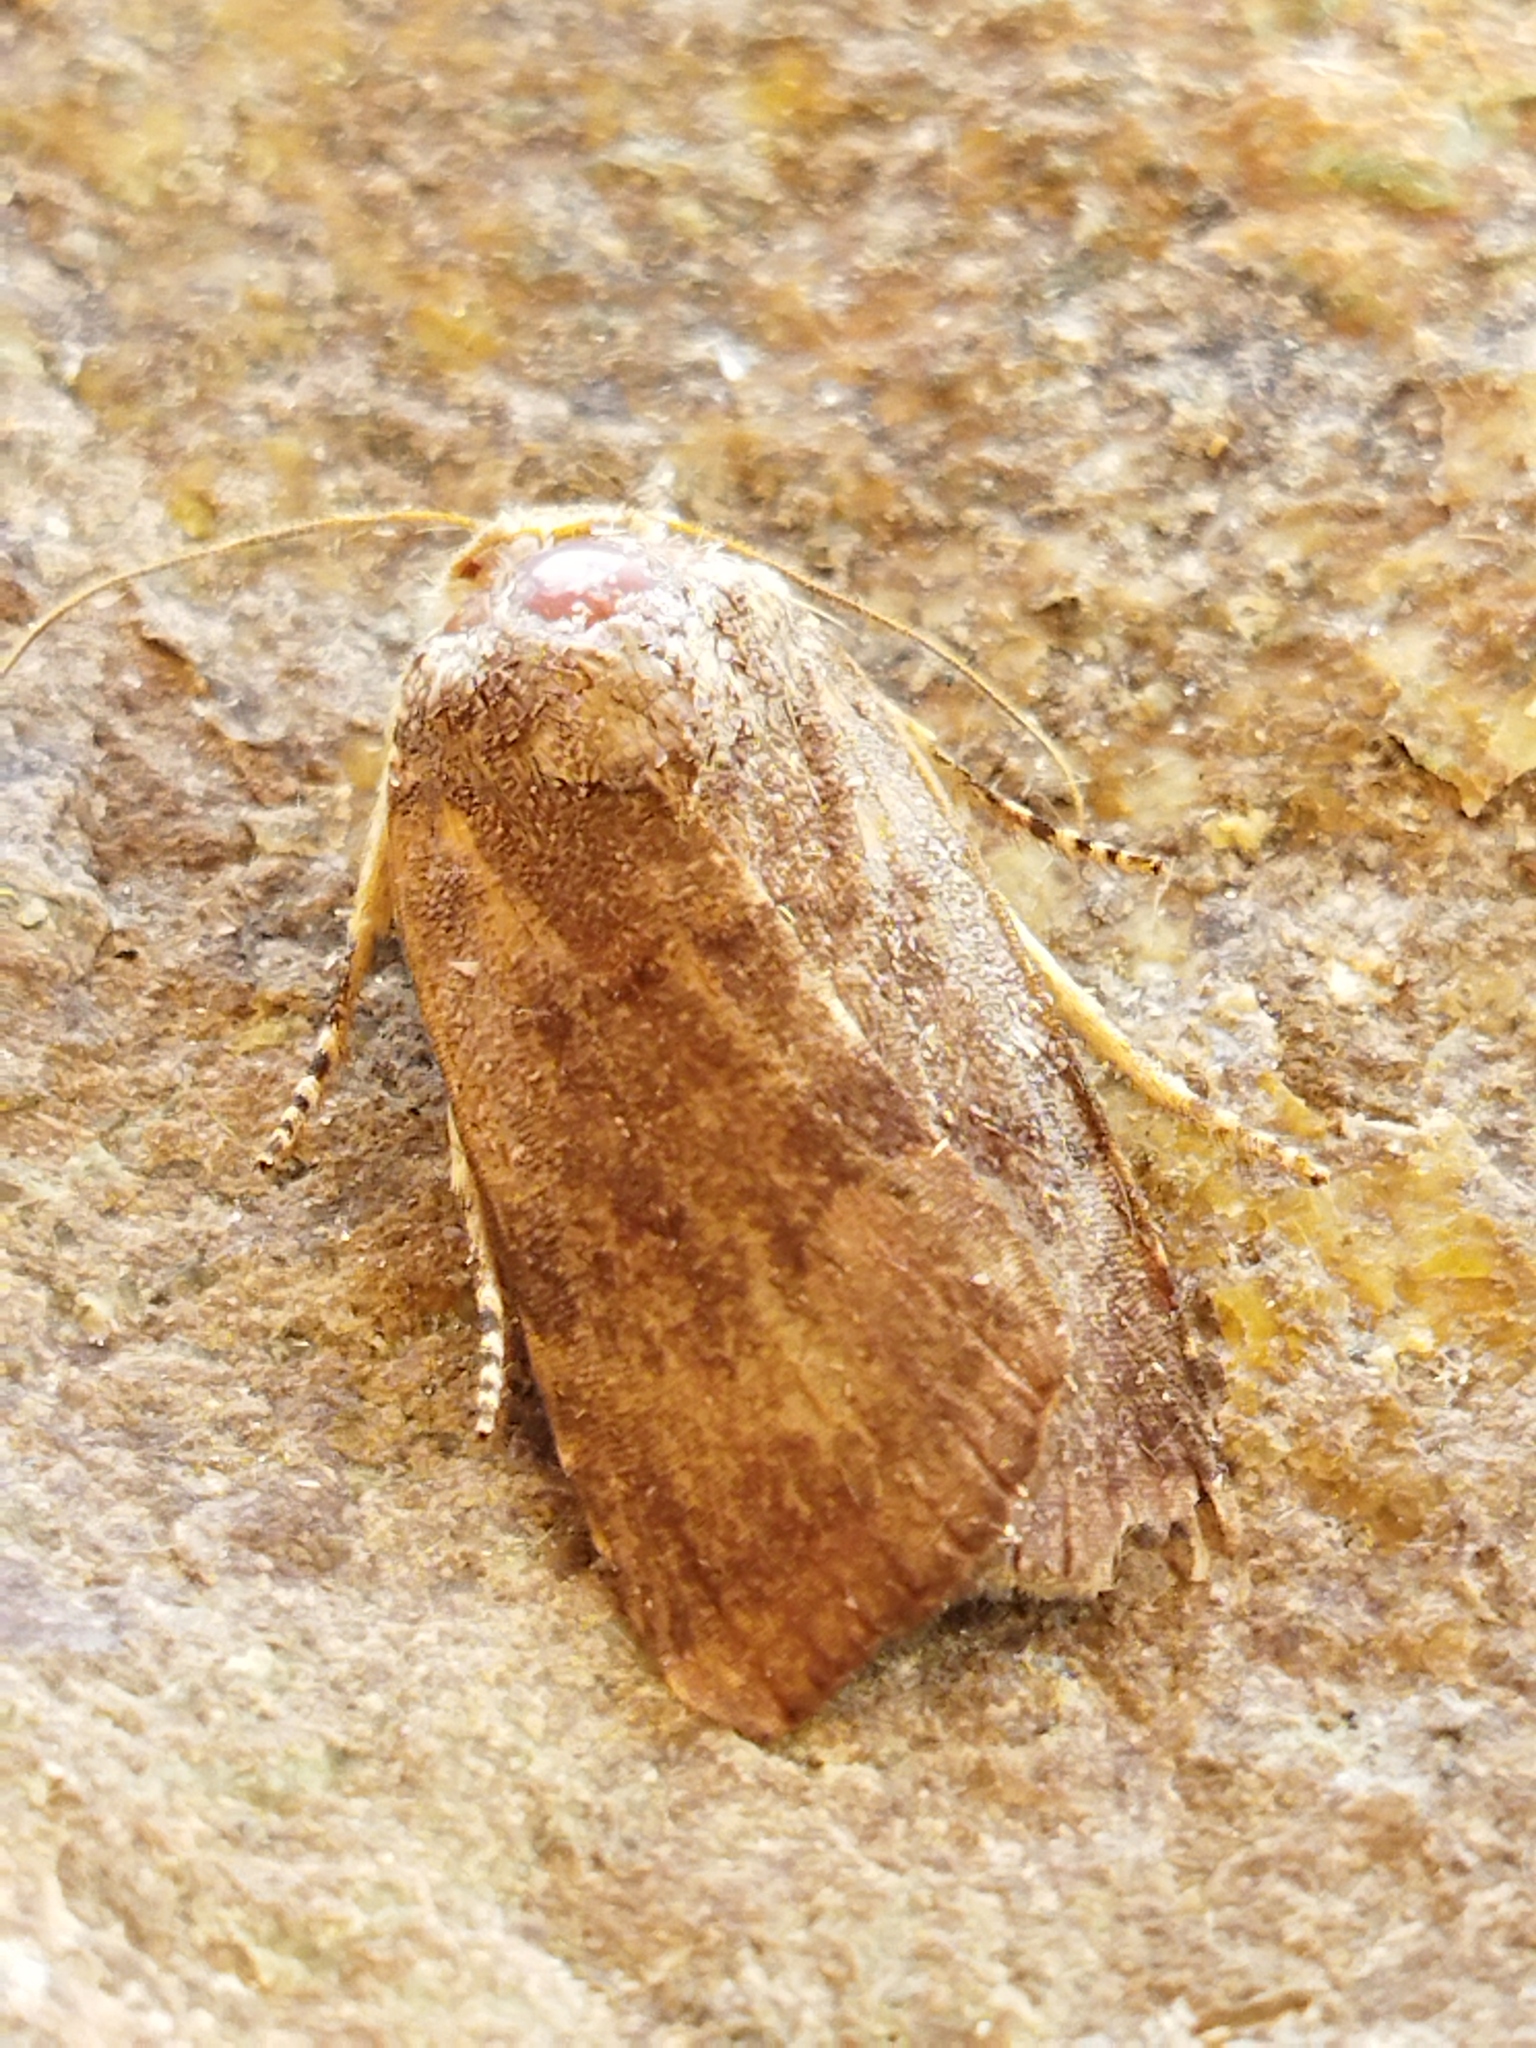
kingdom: Animalia
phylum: Arthropoda
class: Insecta
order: Lepidoptera
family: Noctuidae
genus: Noctua
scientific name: Noctua
